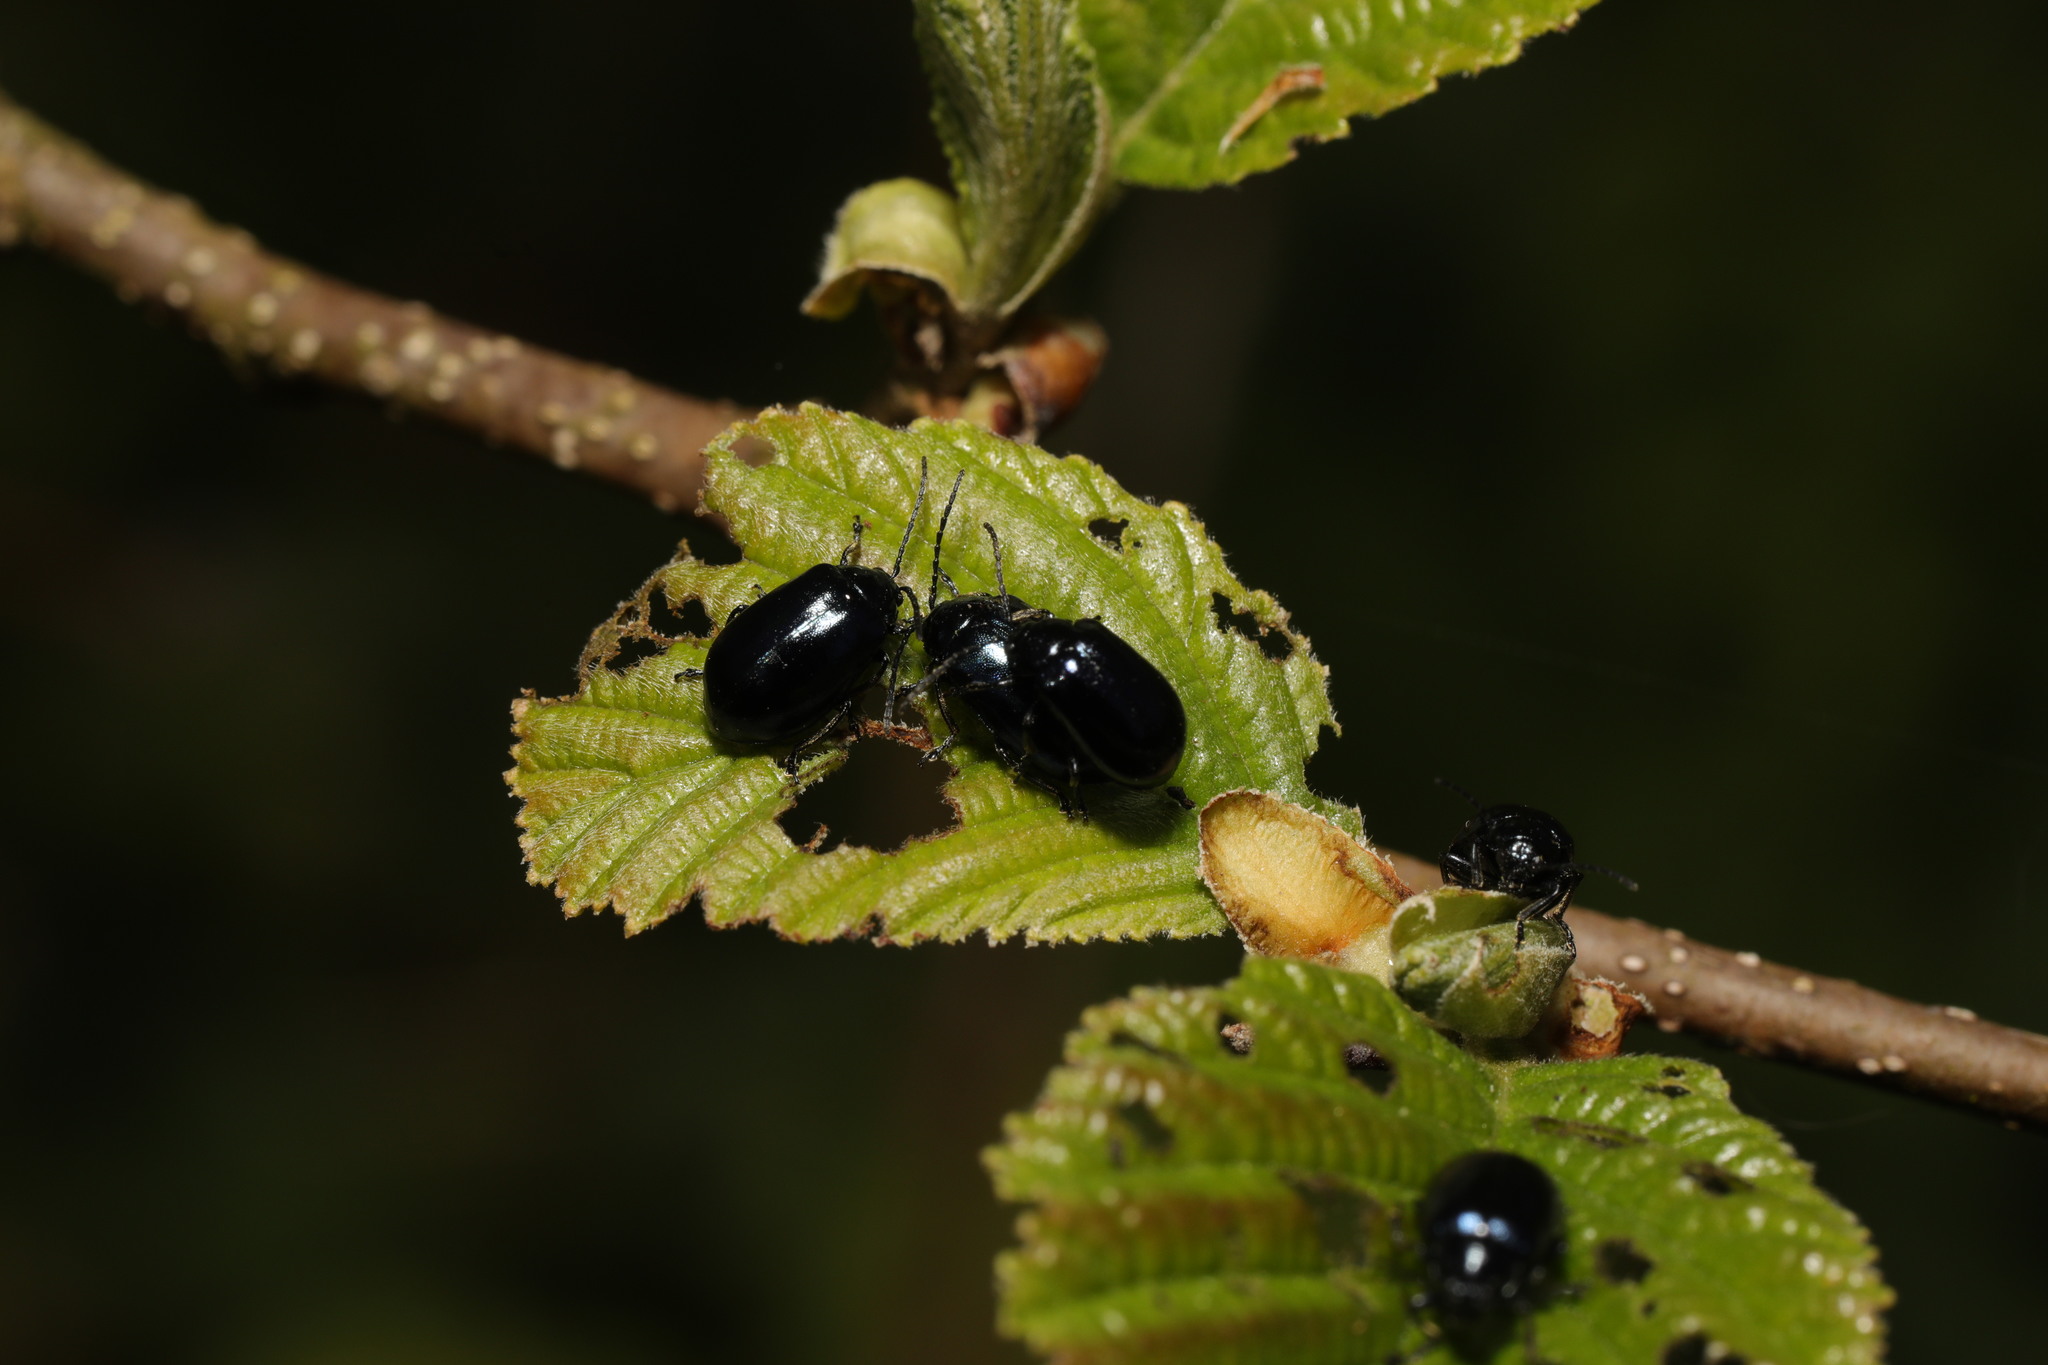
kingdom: Animalia
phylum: Arthropoda
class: Insecta
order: Coleoptera
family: Chrysomelidae
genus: Agelastica
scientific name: Agelastica alni
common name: Alder leaf beetle
